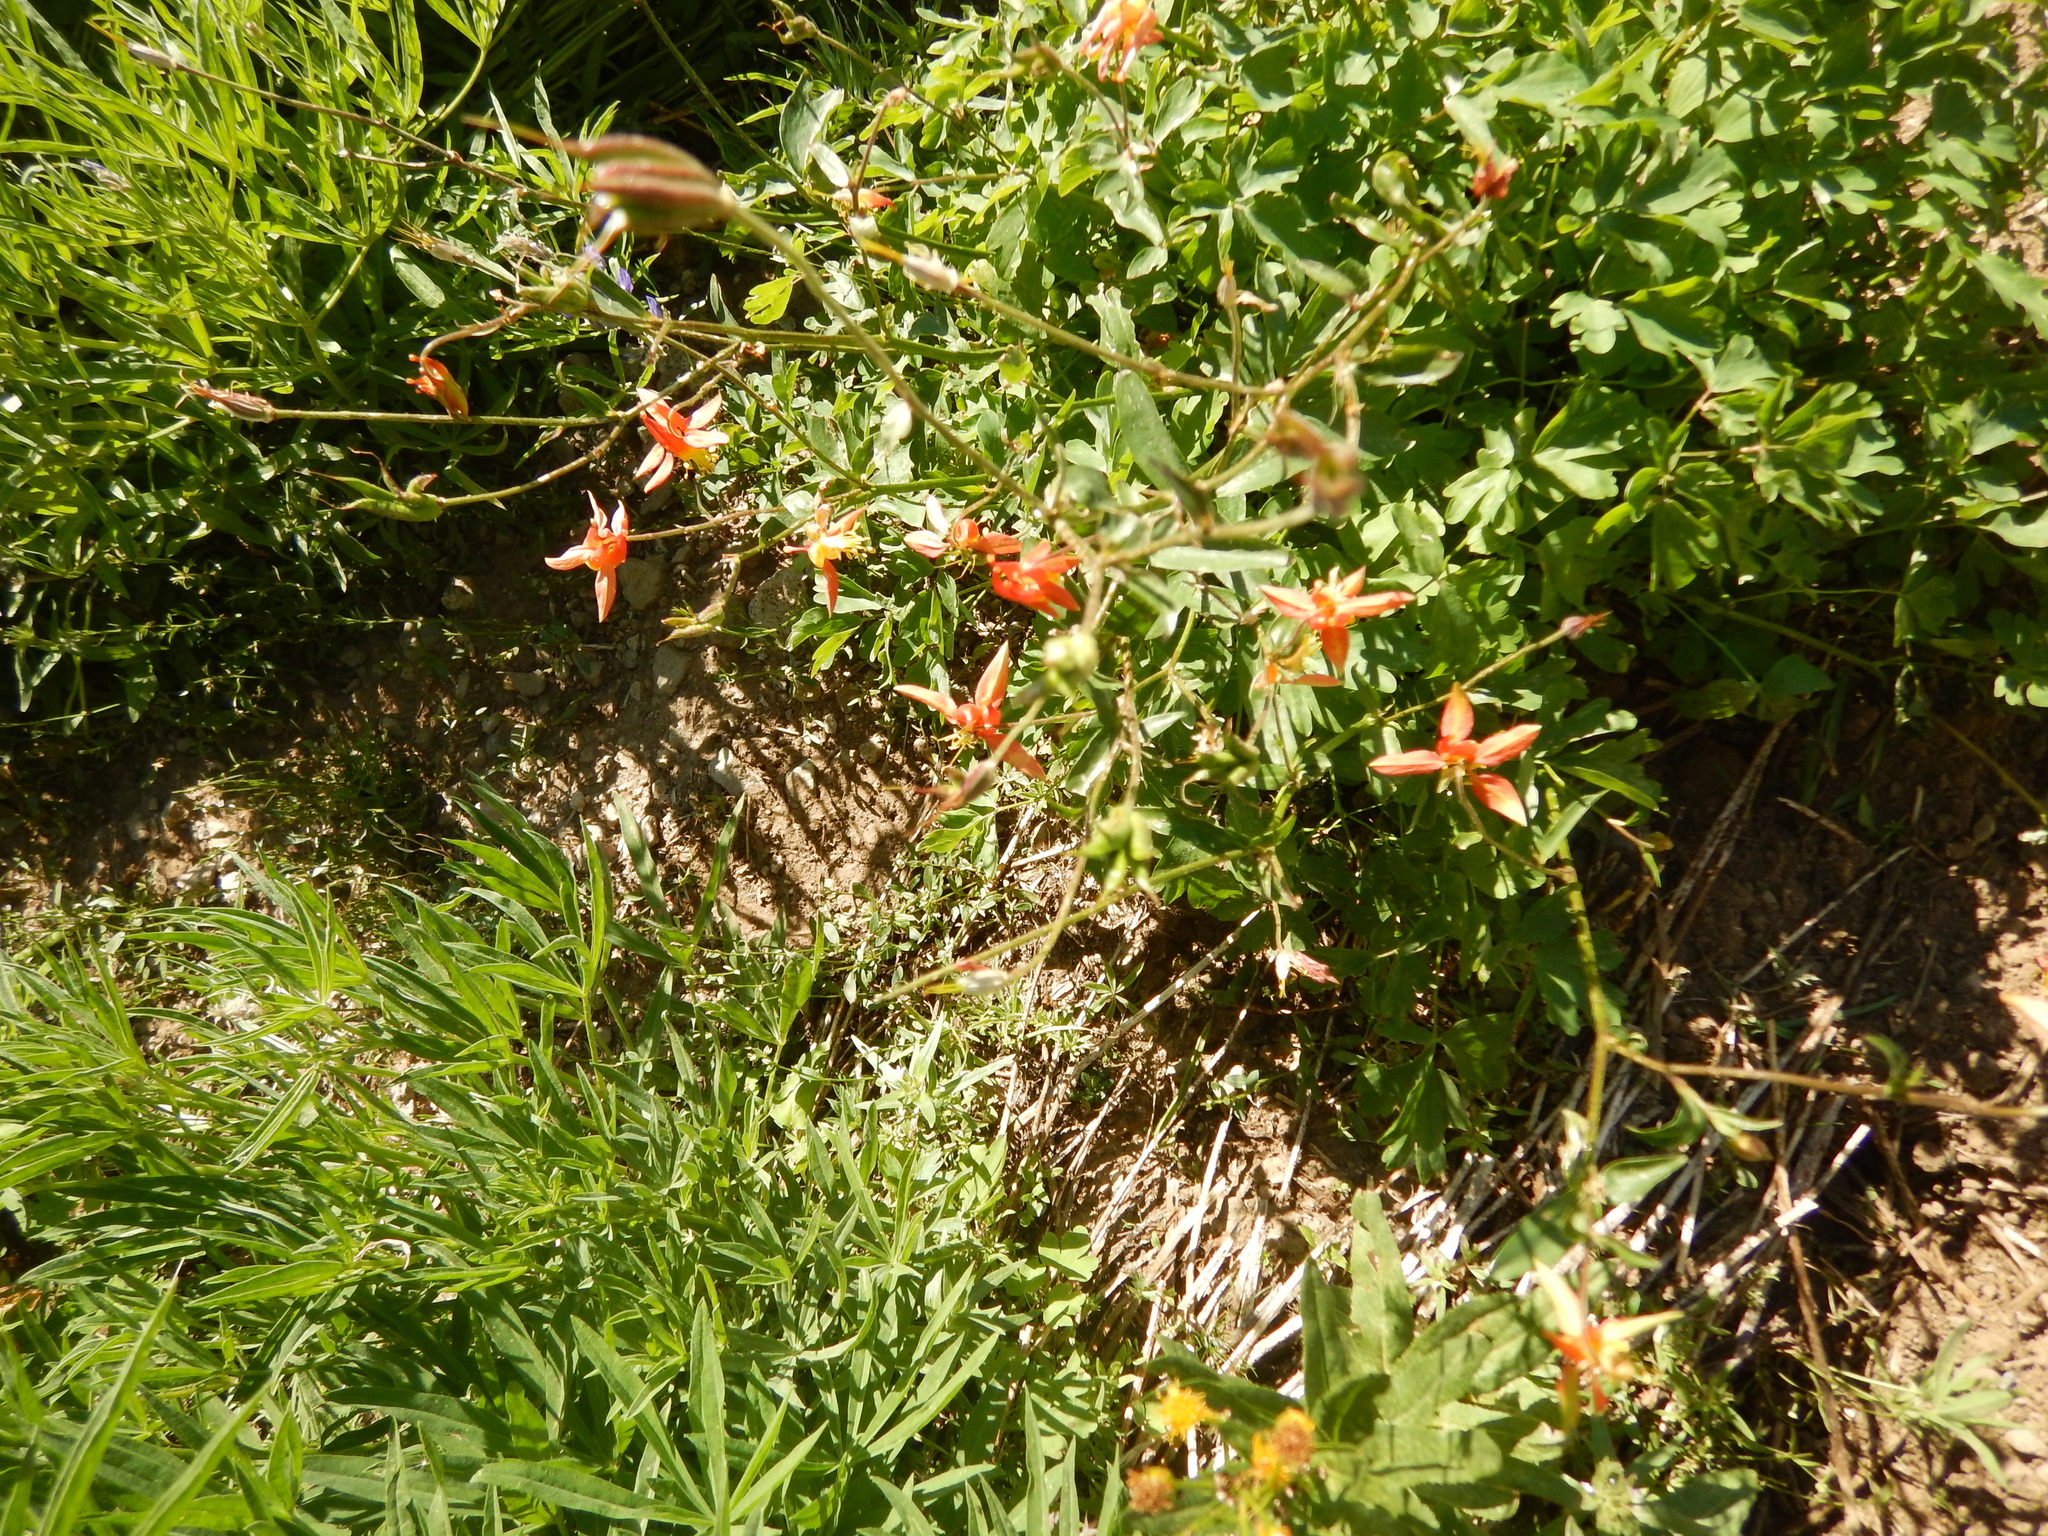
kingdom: Plantae
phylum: Tracheophyta
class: Magnoliopsida
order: Ranunculales
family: Ranunculaceae
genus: Aquilegia
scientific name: Aquilegia formosa
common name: Sitka columbine
